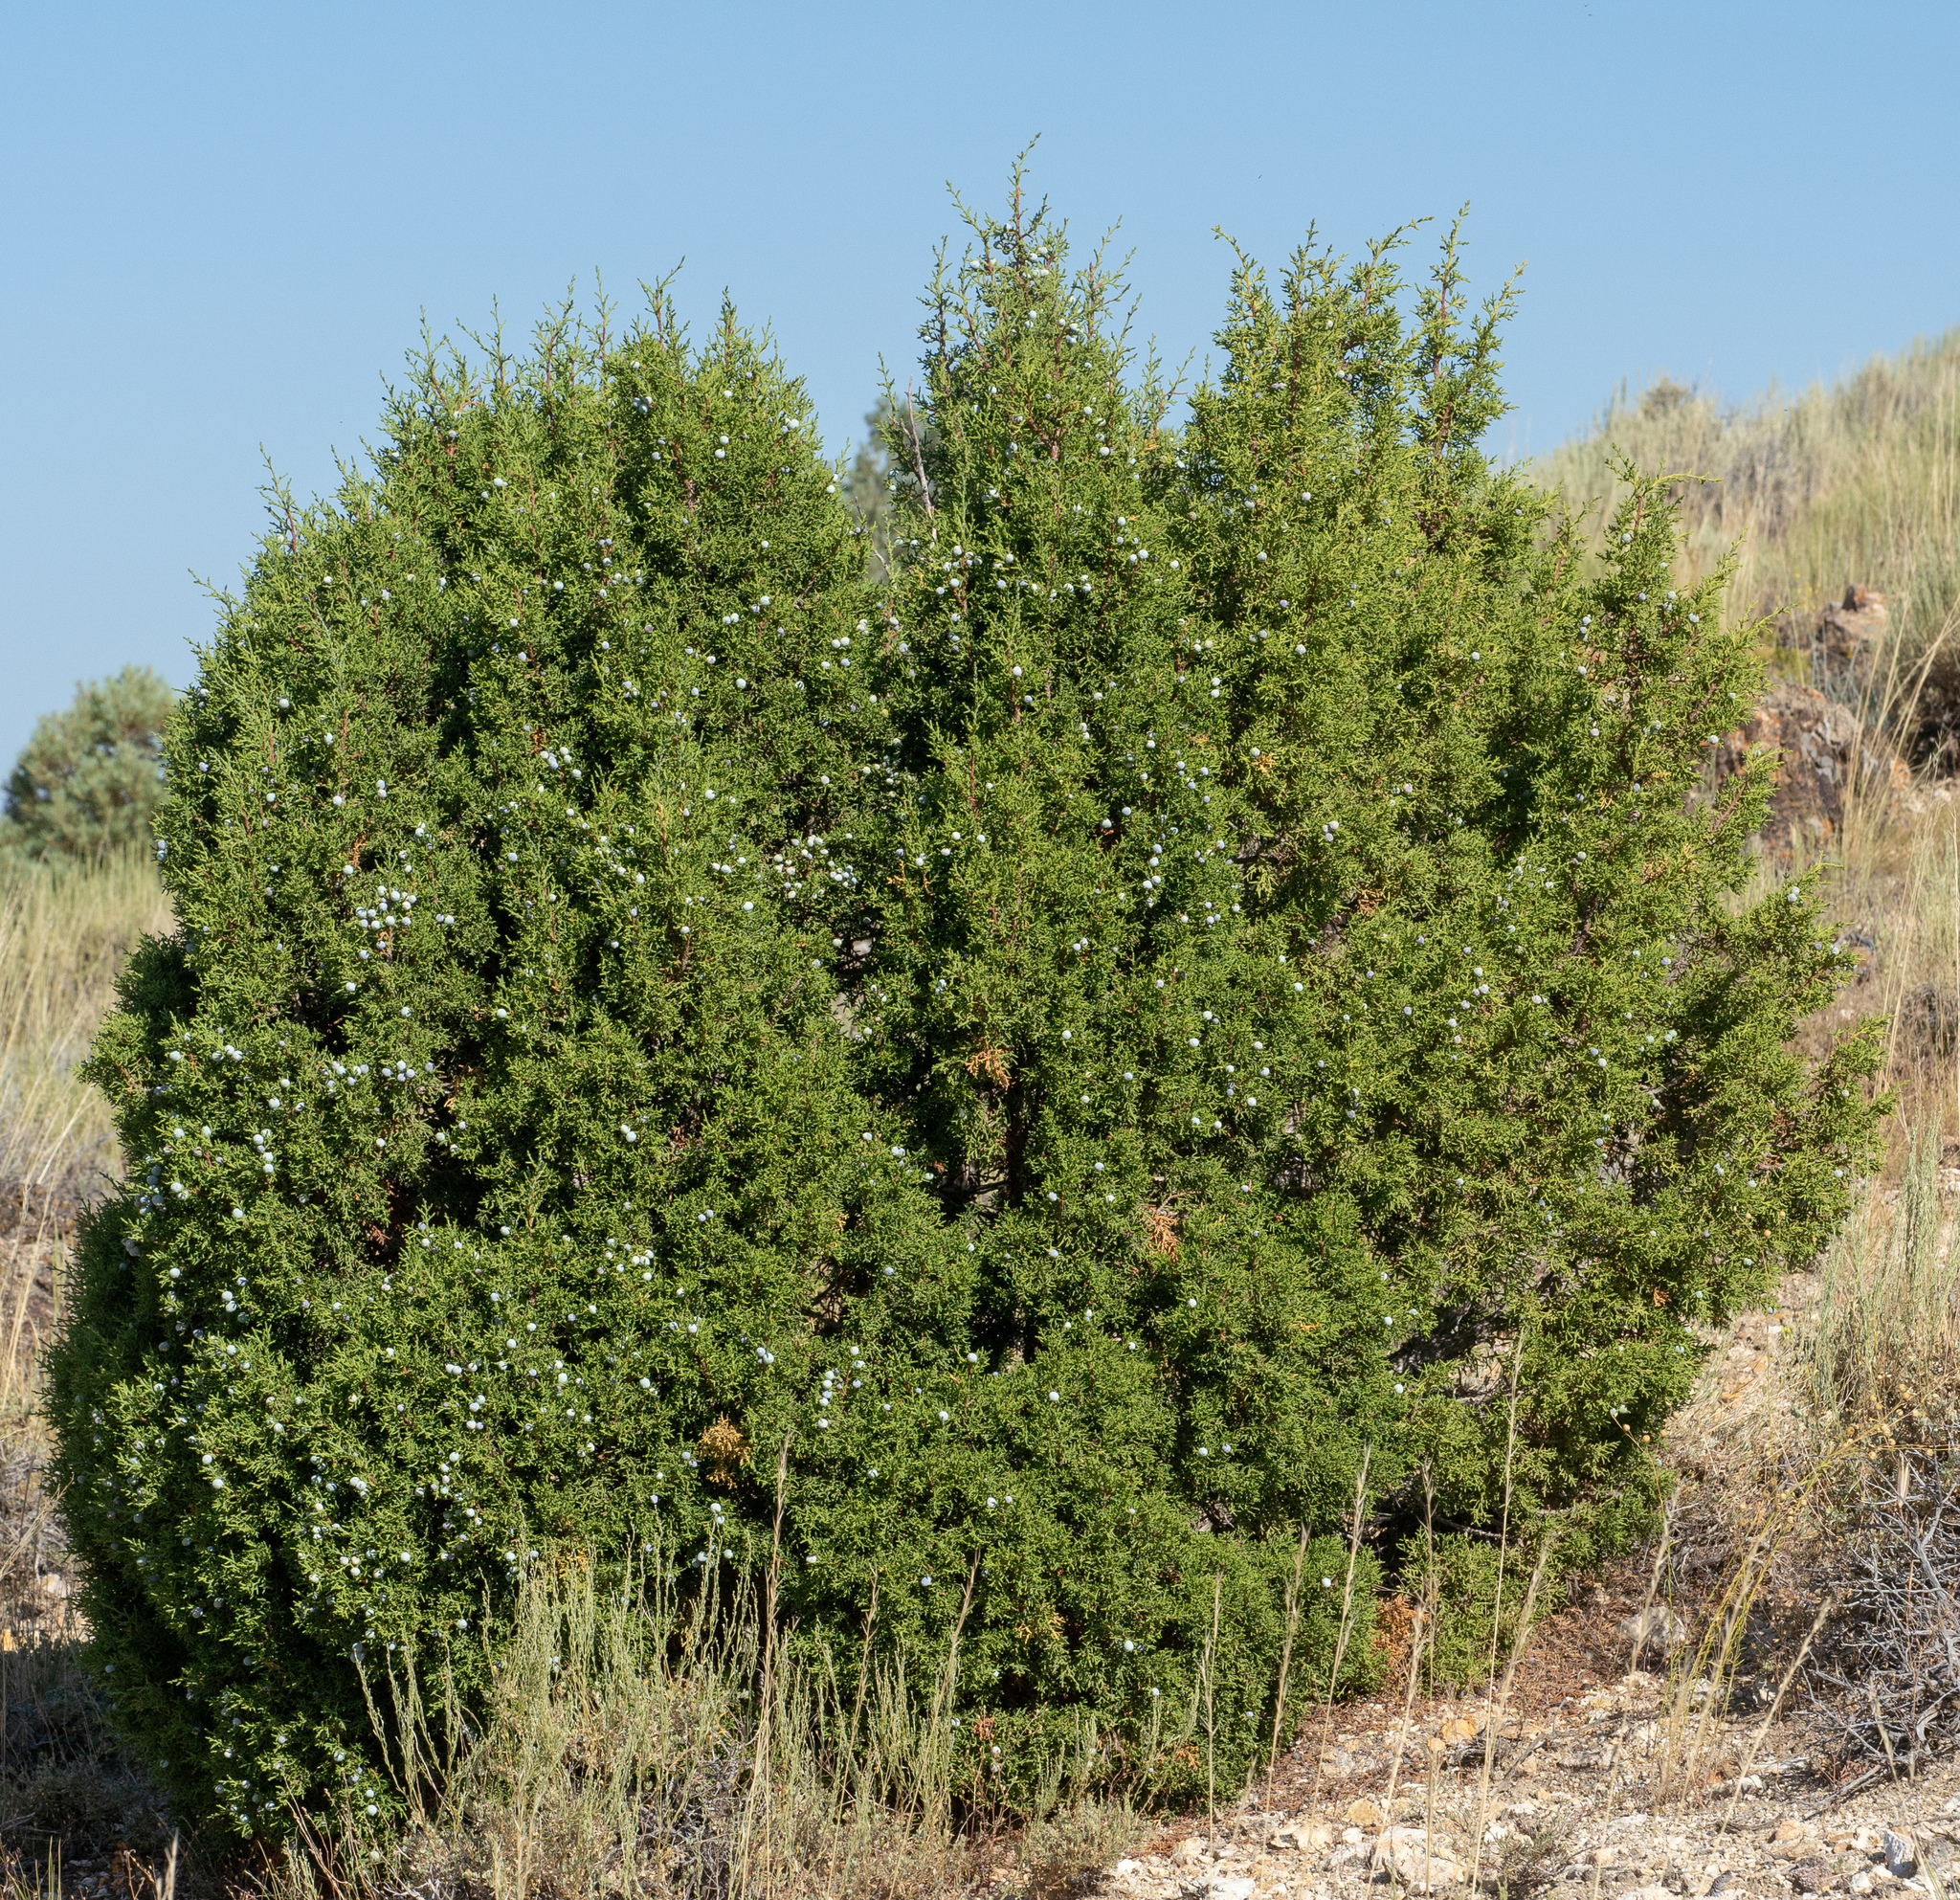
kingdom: Plantae
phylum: Tracheophyta
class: Pinopsida
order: Pinales
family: Cupressaceae
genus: Juniperus
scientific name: Juniperus osteosperma
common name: Utah juniper
